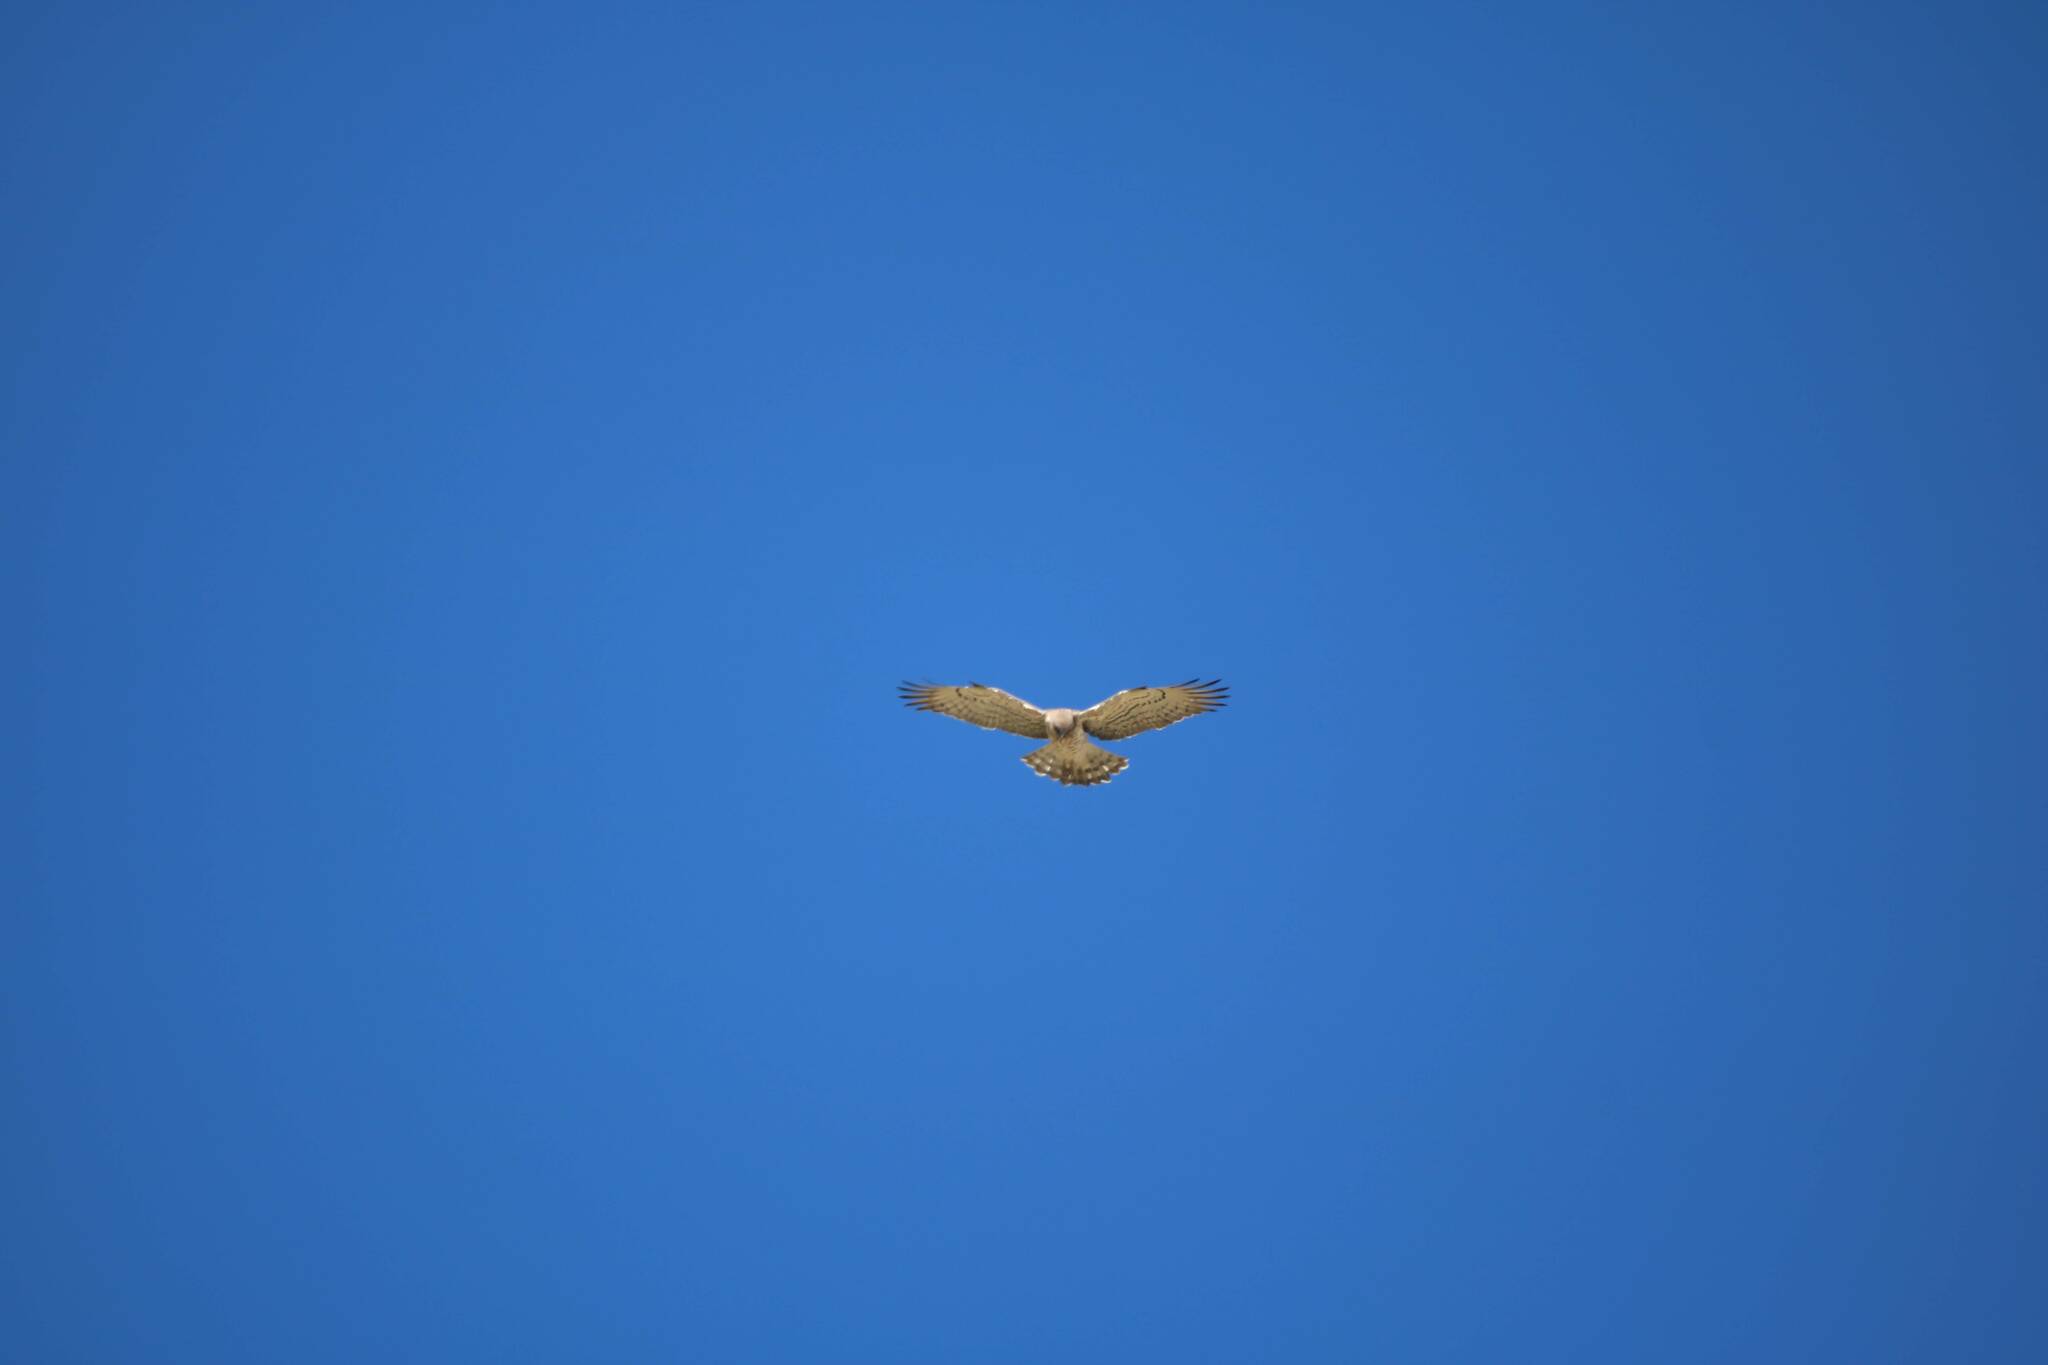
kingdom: Animalia
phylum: Chordata
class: Aves
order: Accipitriformes
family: Accipitridae
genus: Circaetus
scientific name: Circaetus gallicus
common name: Short-toed snake eagle
